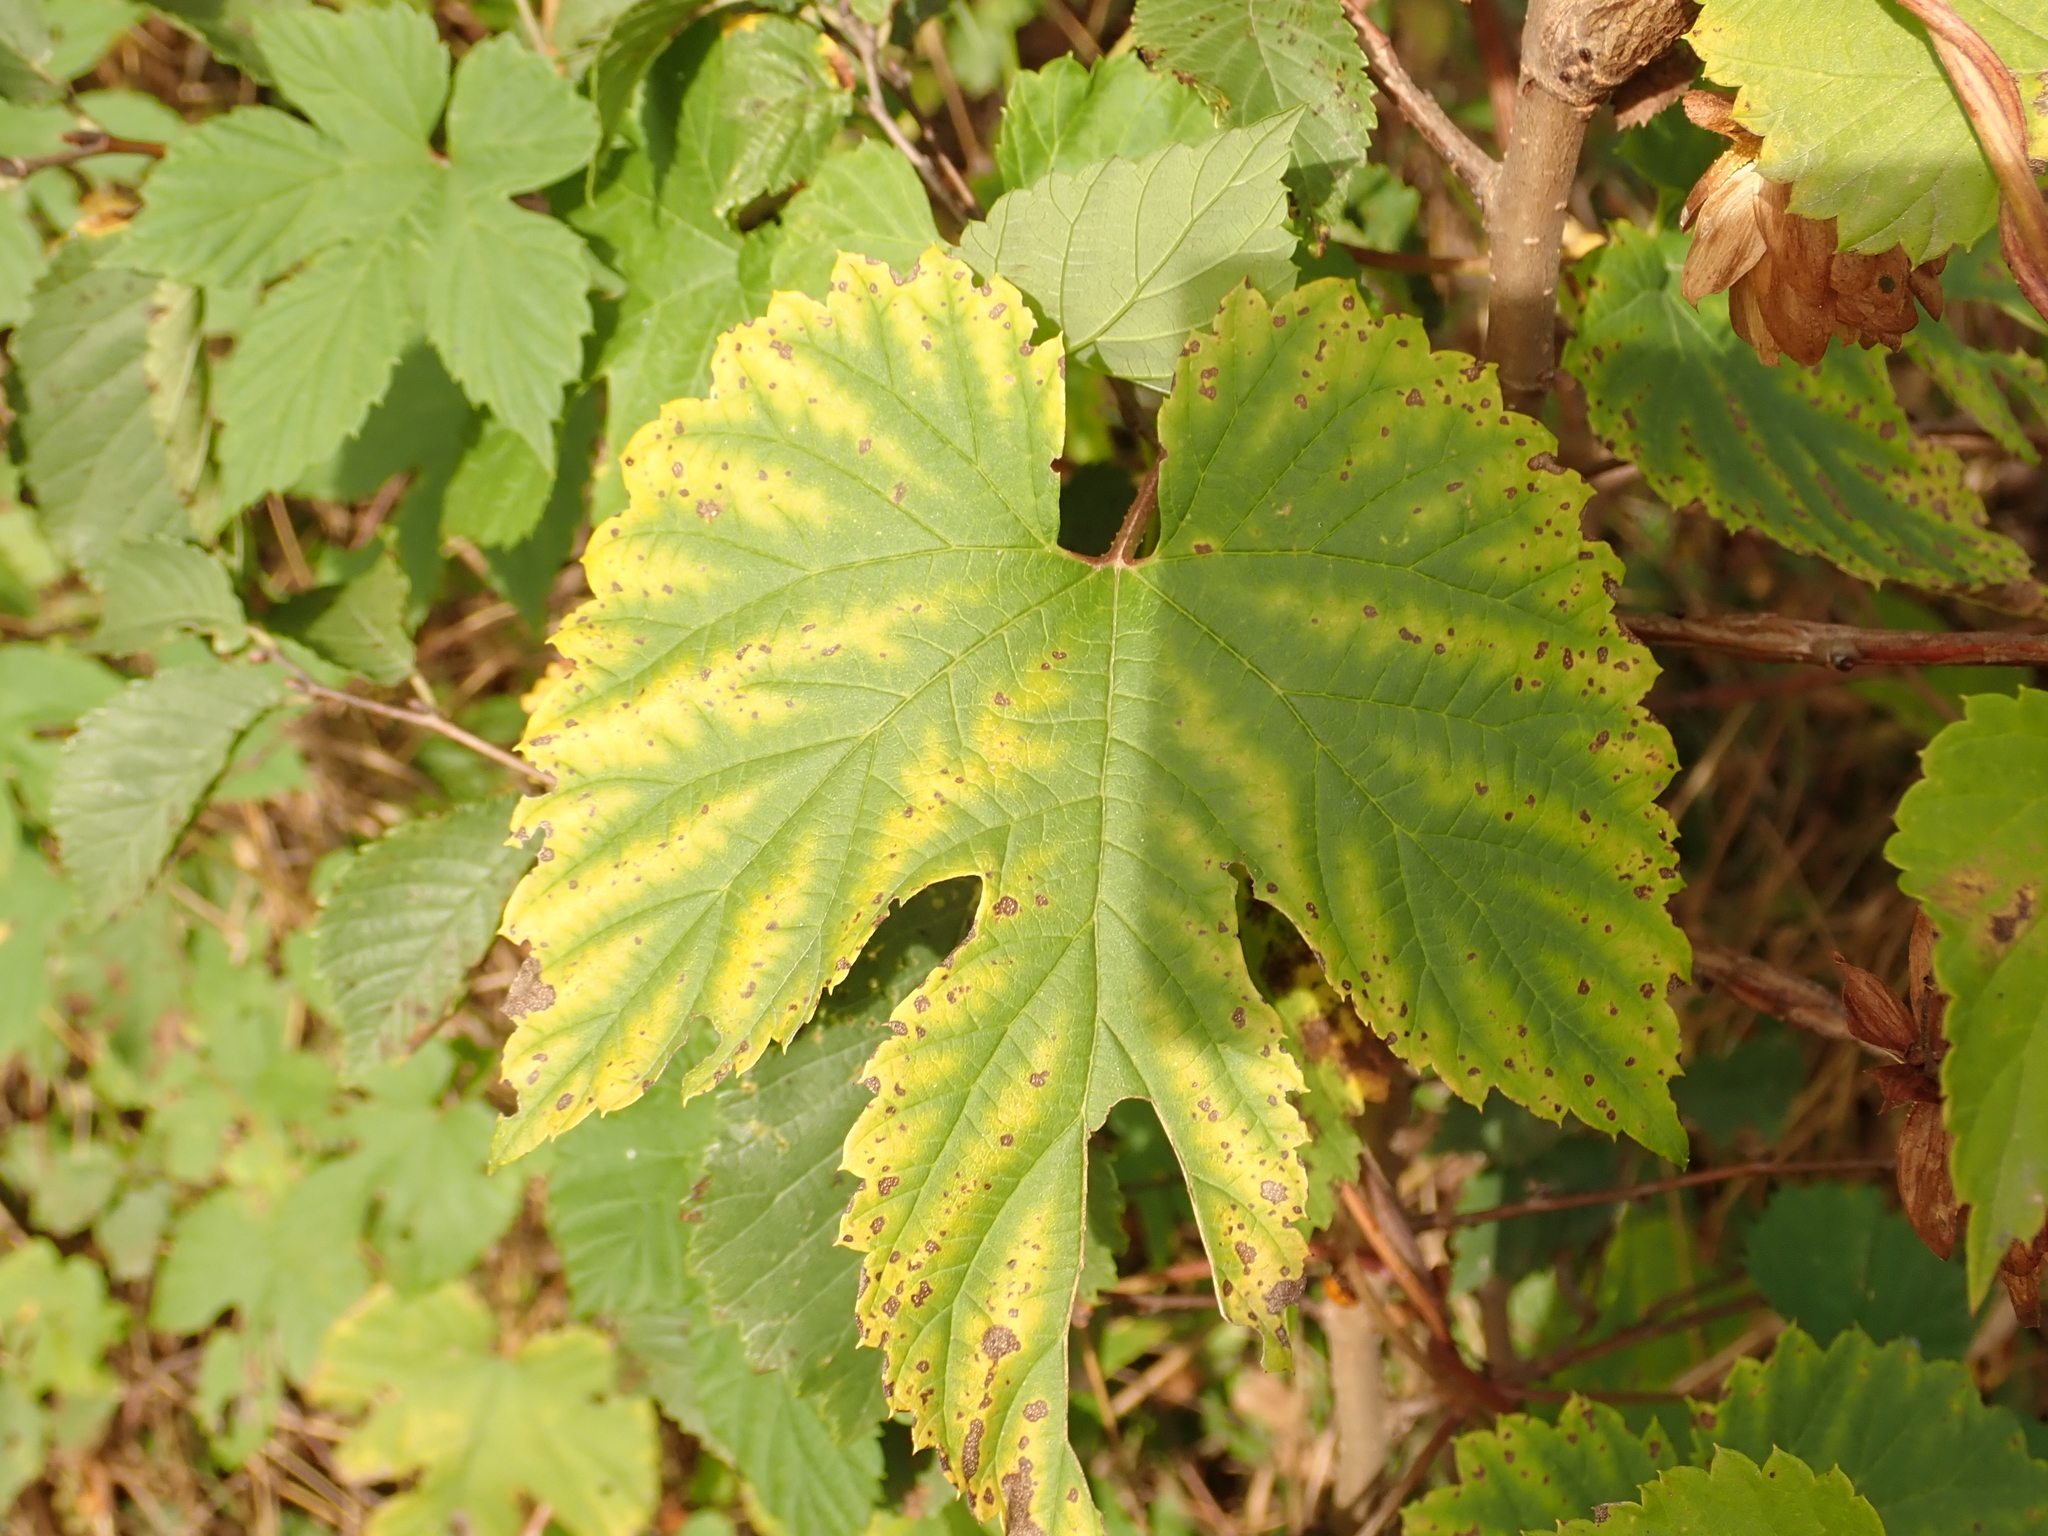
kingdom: Plantae
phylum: Tracheophyta
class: Magnoliopsida
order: Rosales
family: Cannabaceae
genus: Humulus
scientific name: Humulus lupulus
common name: Hop
